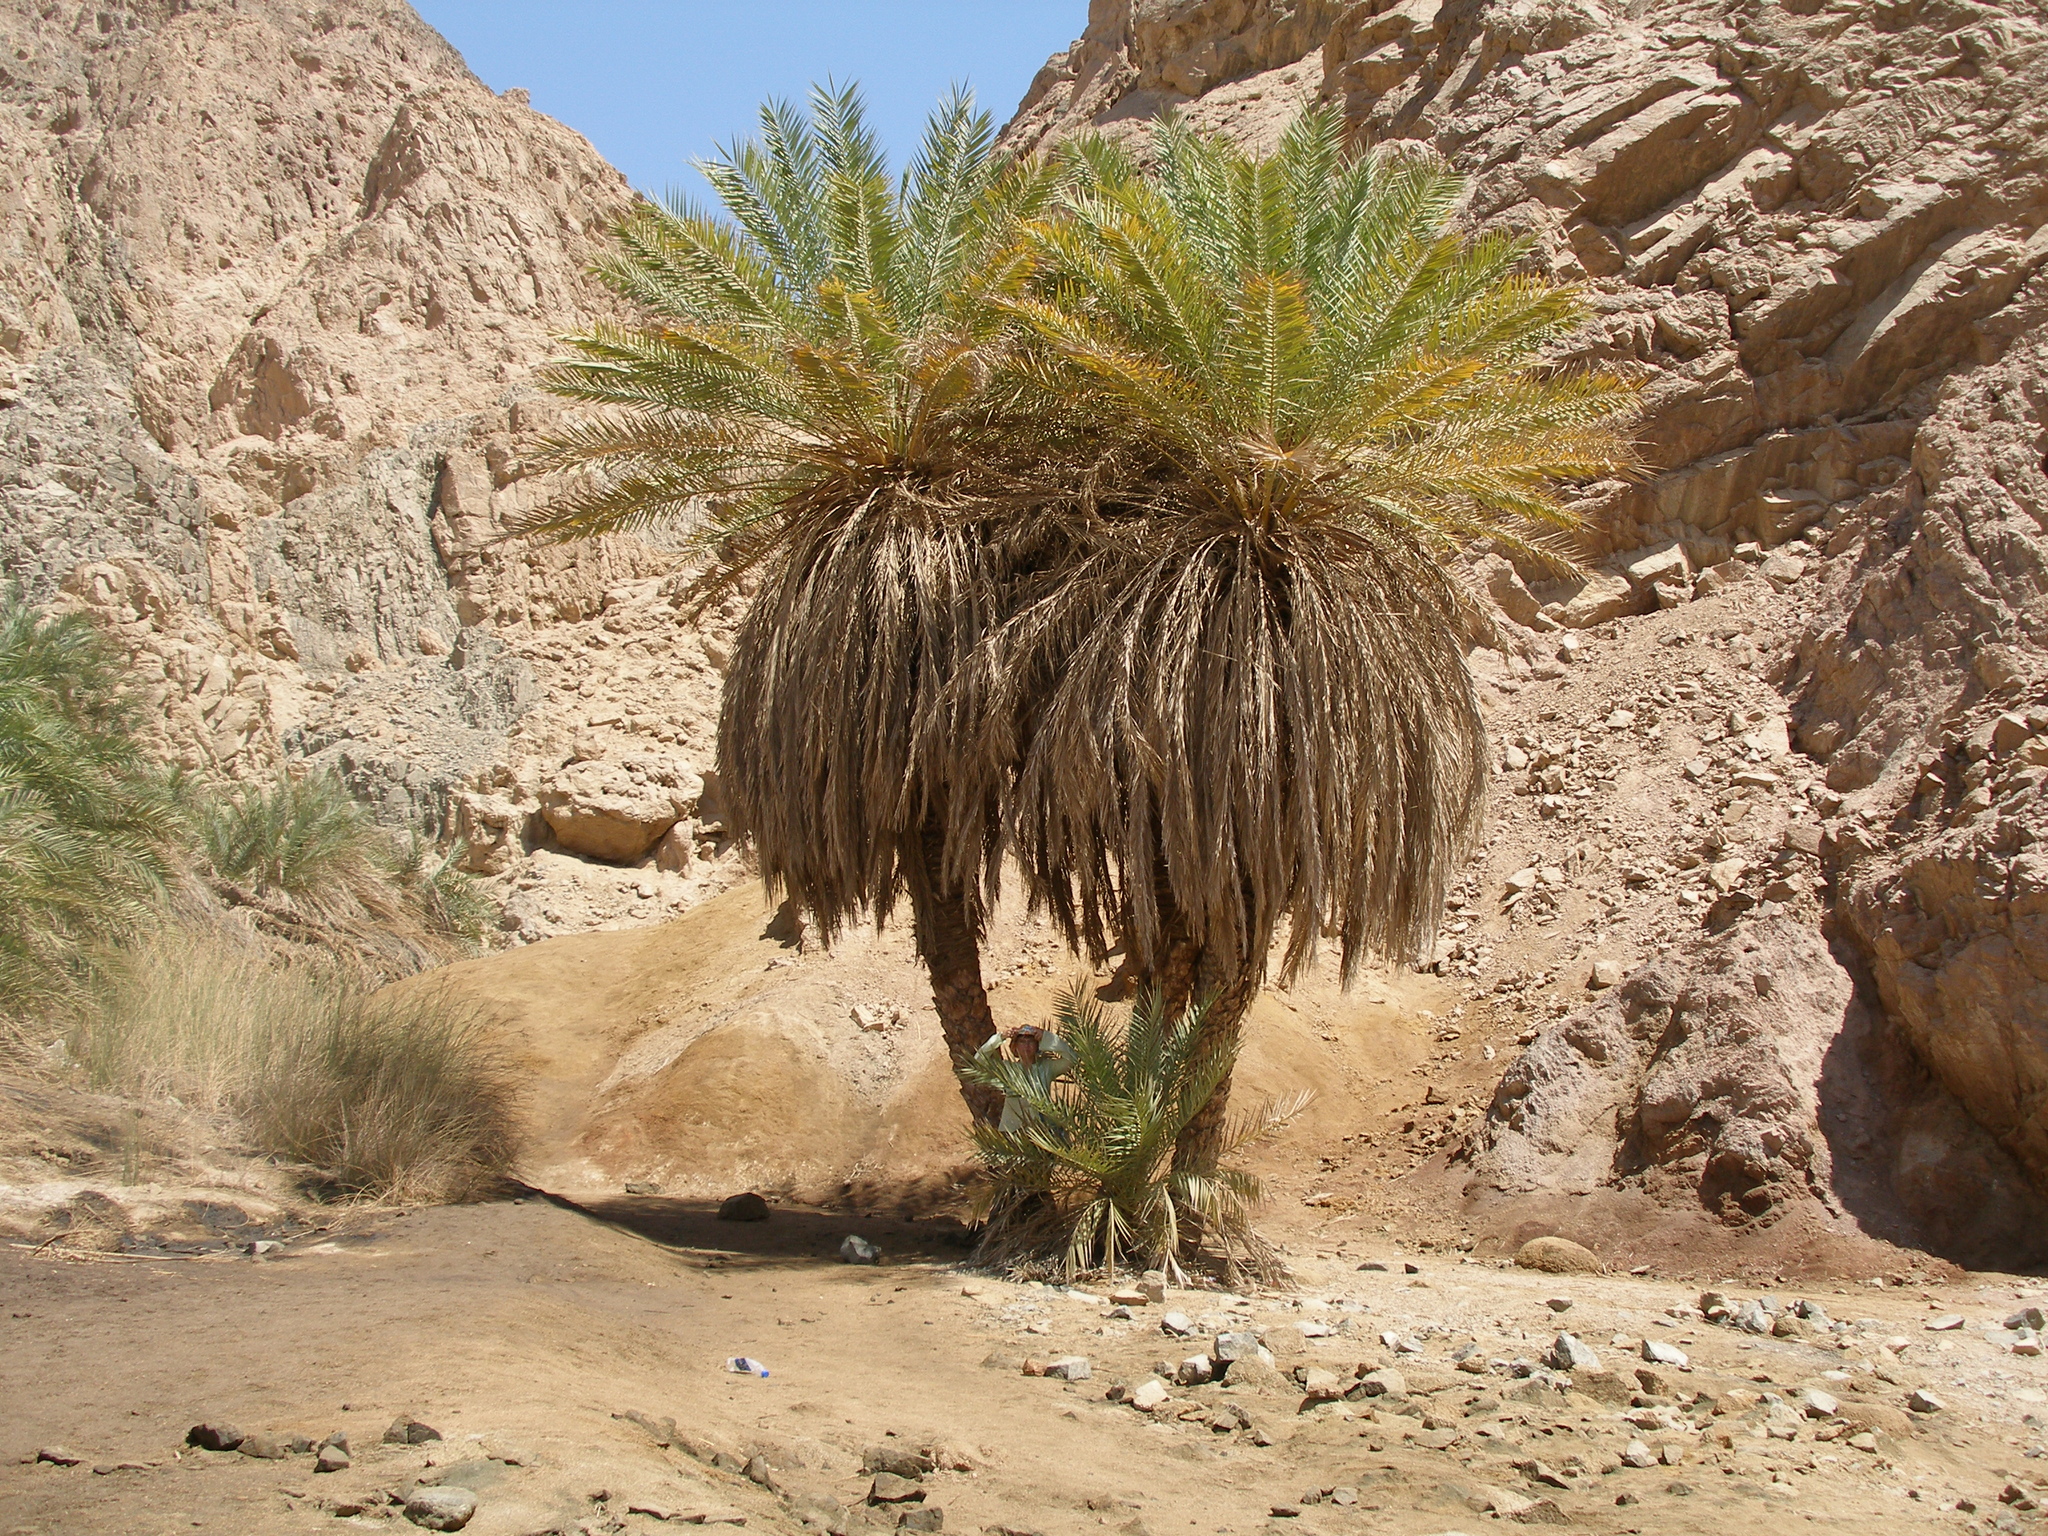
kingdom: Plantae
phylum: Tracheophyta
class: Liliopsida
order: Arecales
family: Arecaceae
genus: Phoenix
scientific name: Phoenix dactylifera
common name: Date palm
